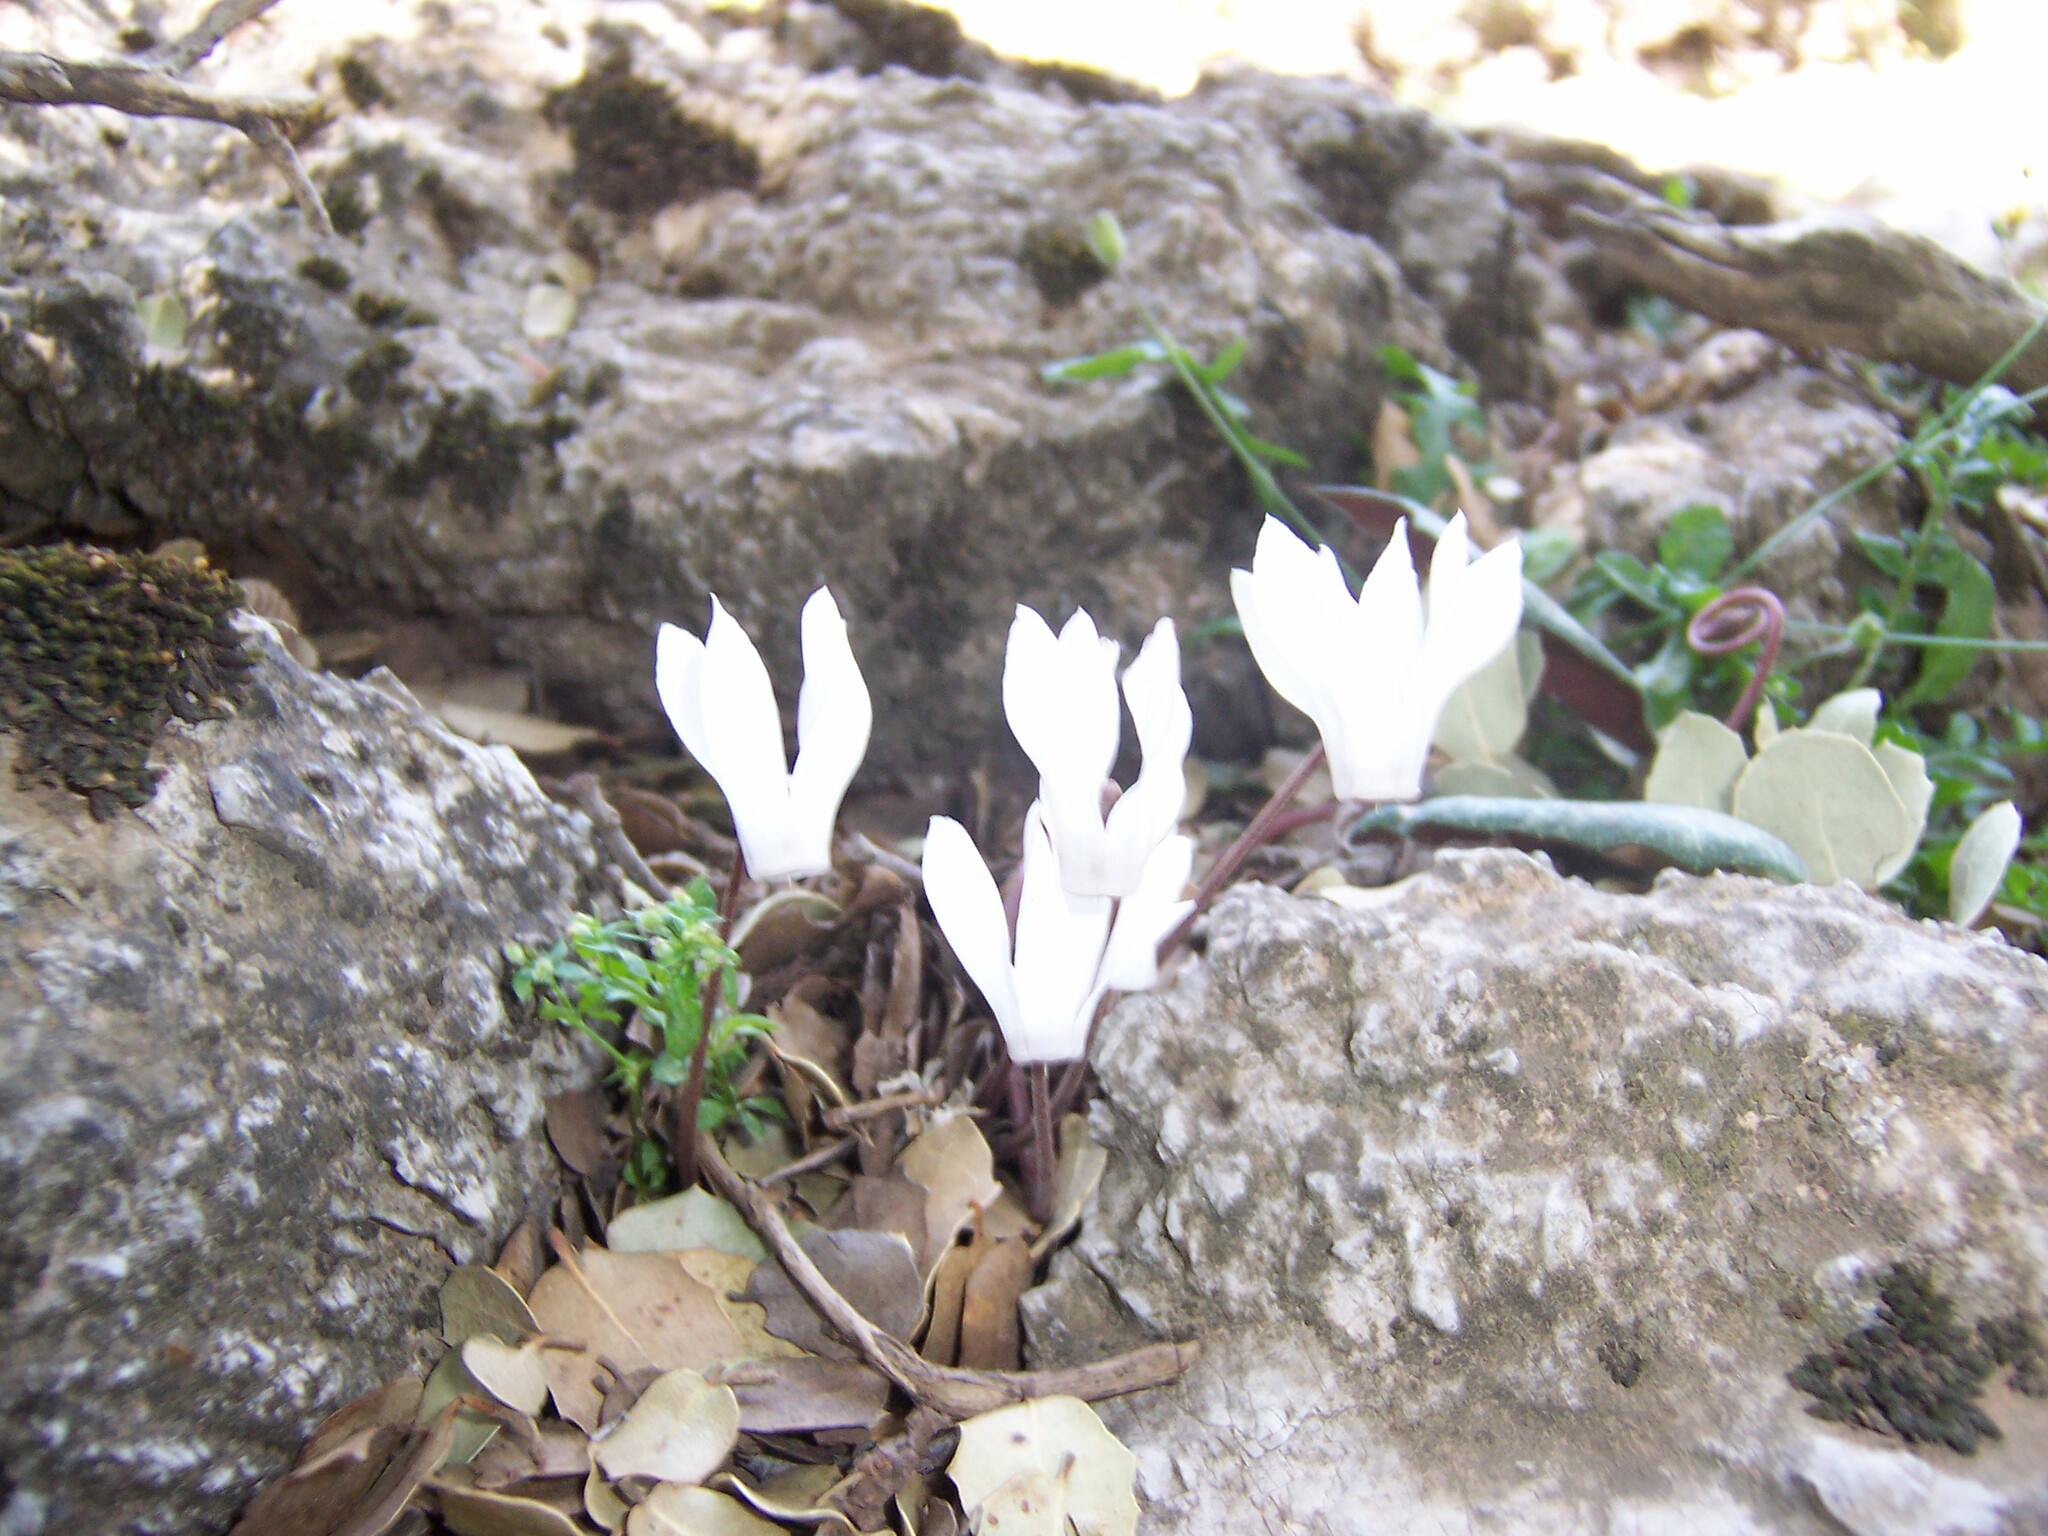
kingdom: Plantae
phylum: Tracheophyta
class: Magnoliopsida
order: Ericales
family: Primulaceae
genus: Cyclamen
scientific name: Cyclamen creticum
